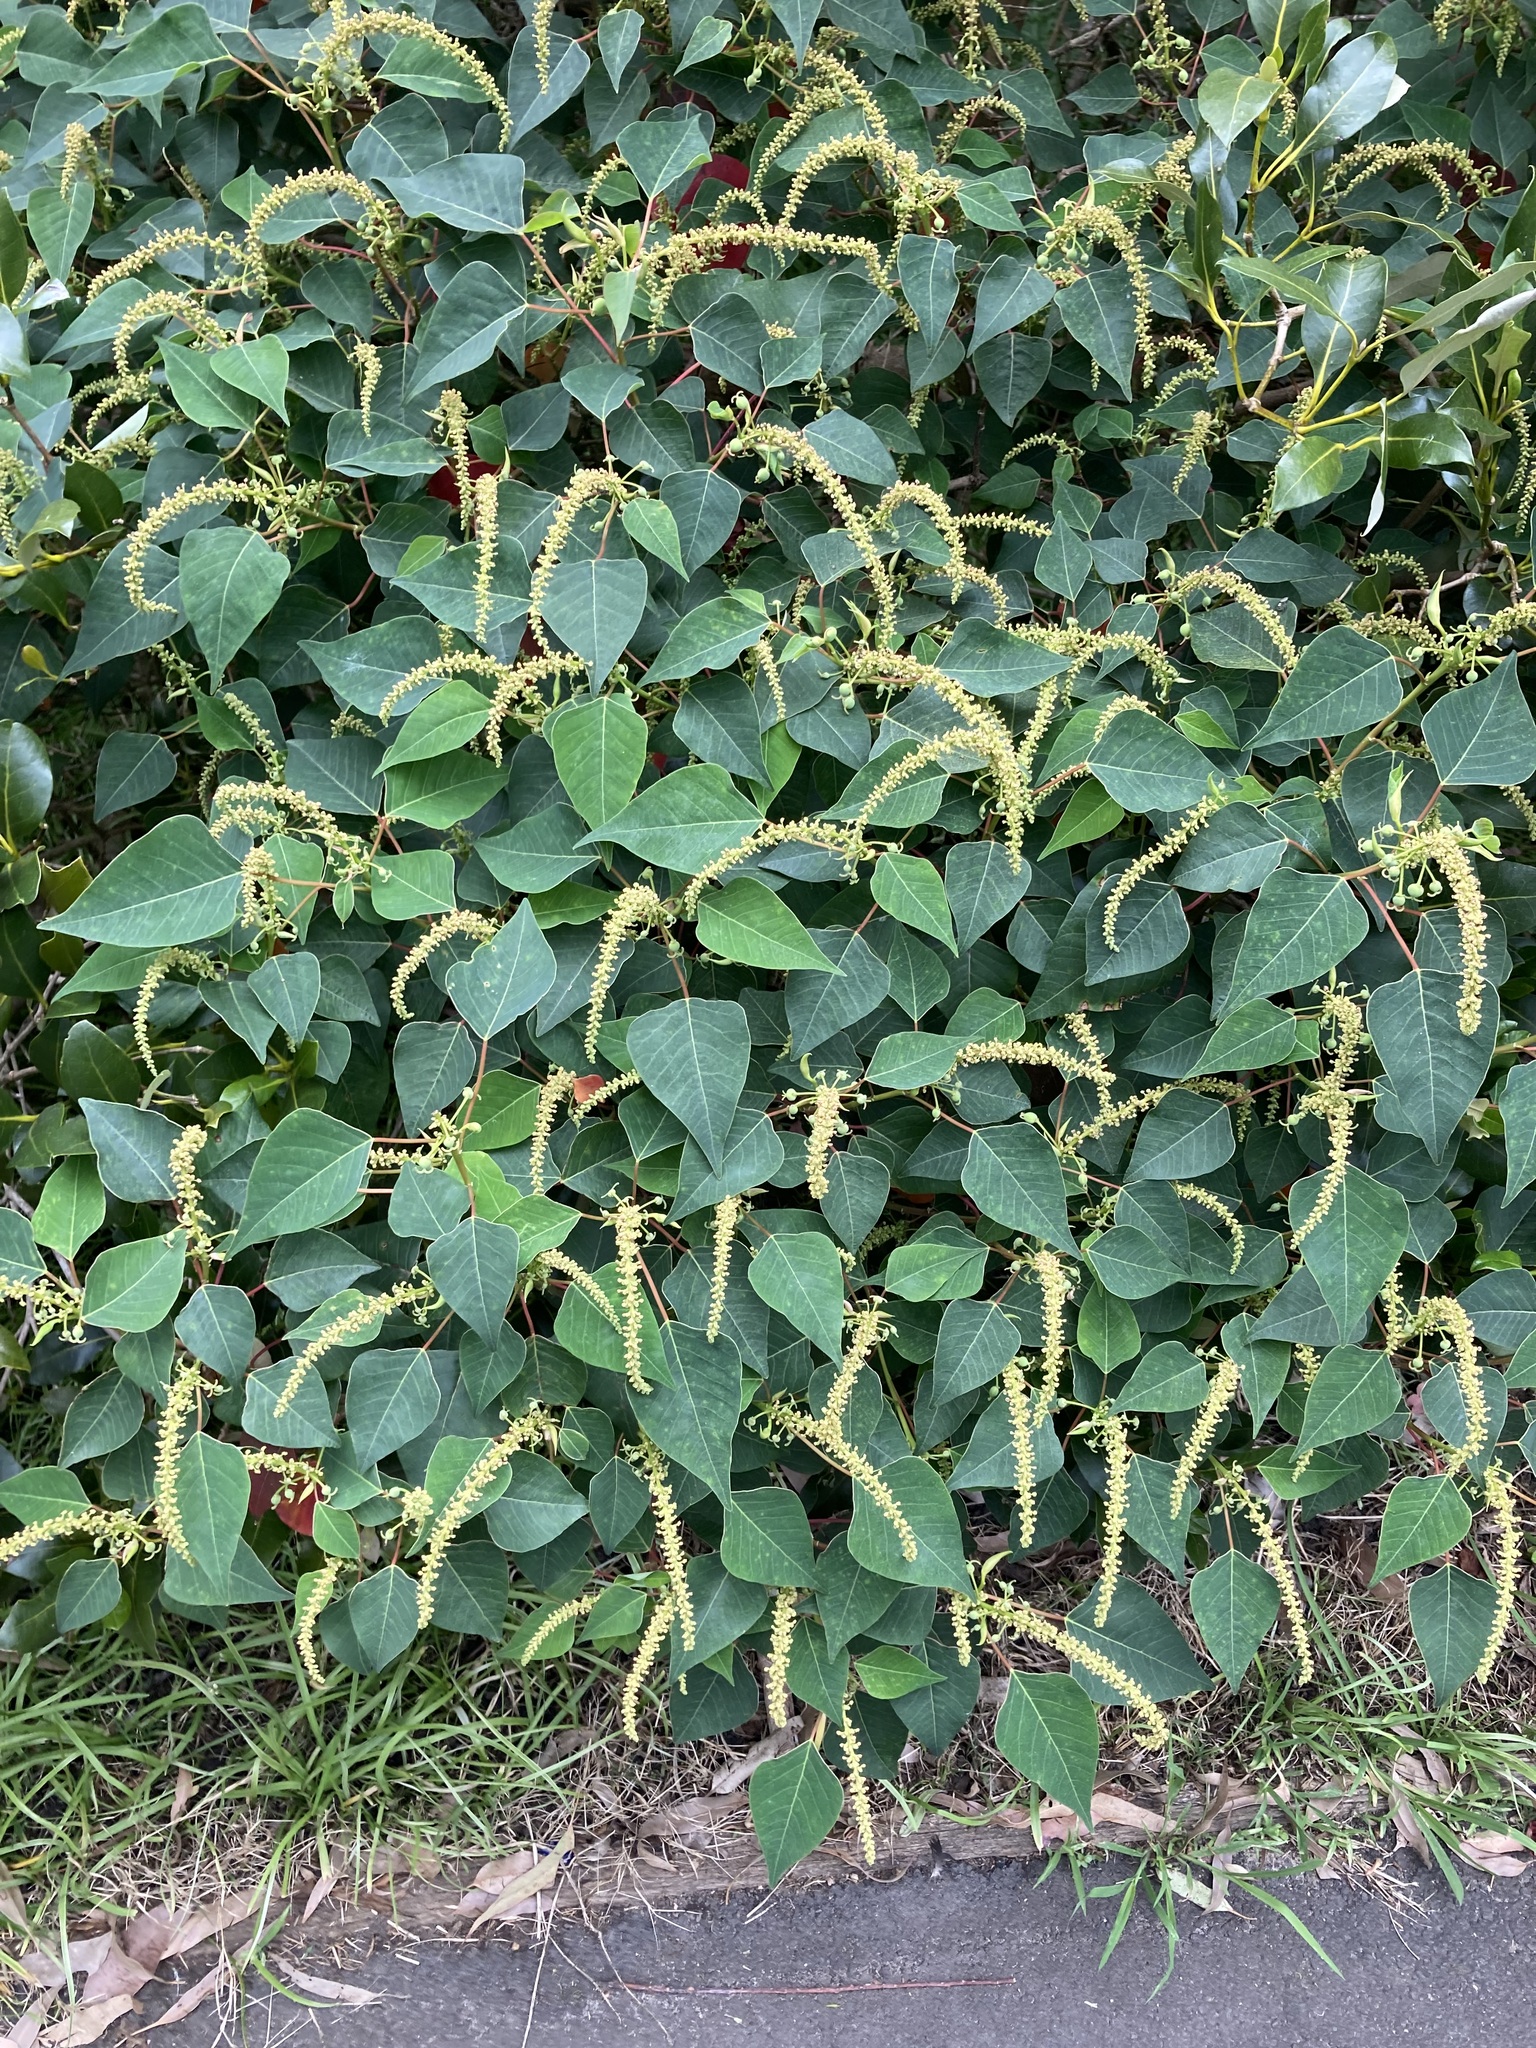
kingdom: Plantae
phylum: Tracheophyta
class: Magnoliopsida
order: Malpighiales
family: Euphorbiaceae
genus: Homalanthus
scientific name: Homalanthus populifolius
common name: Queensland poplar
